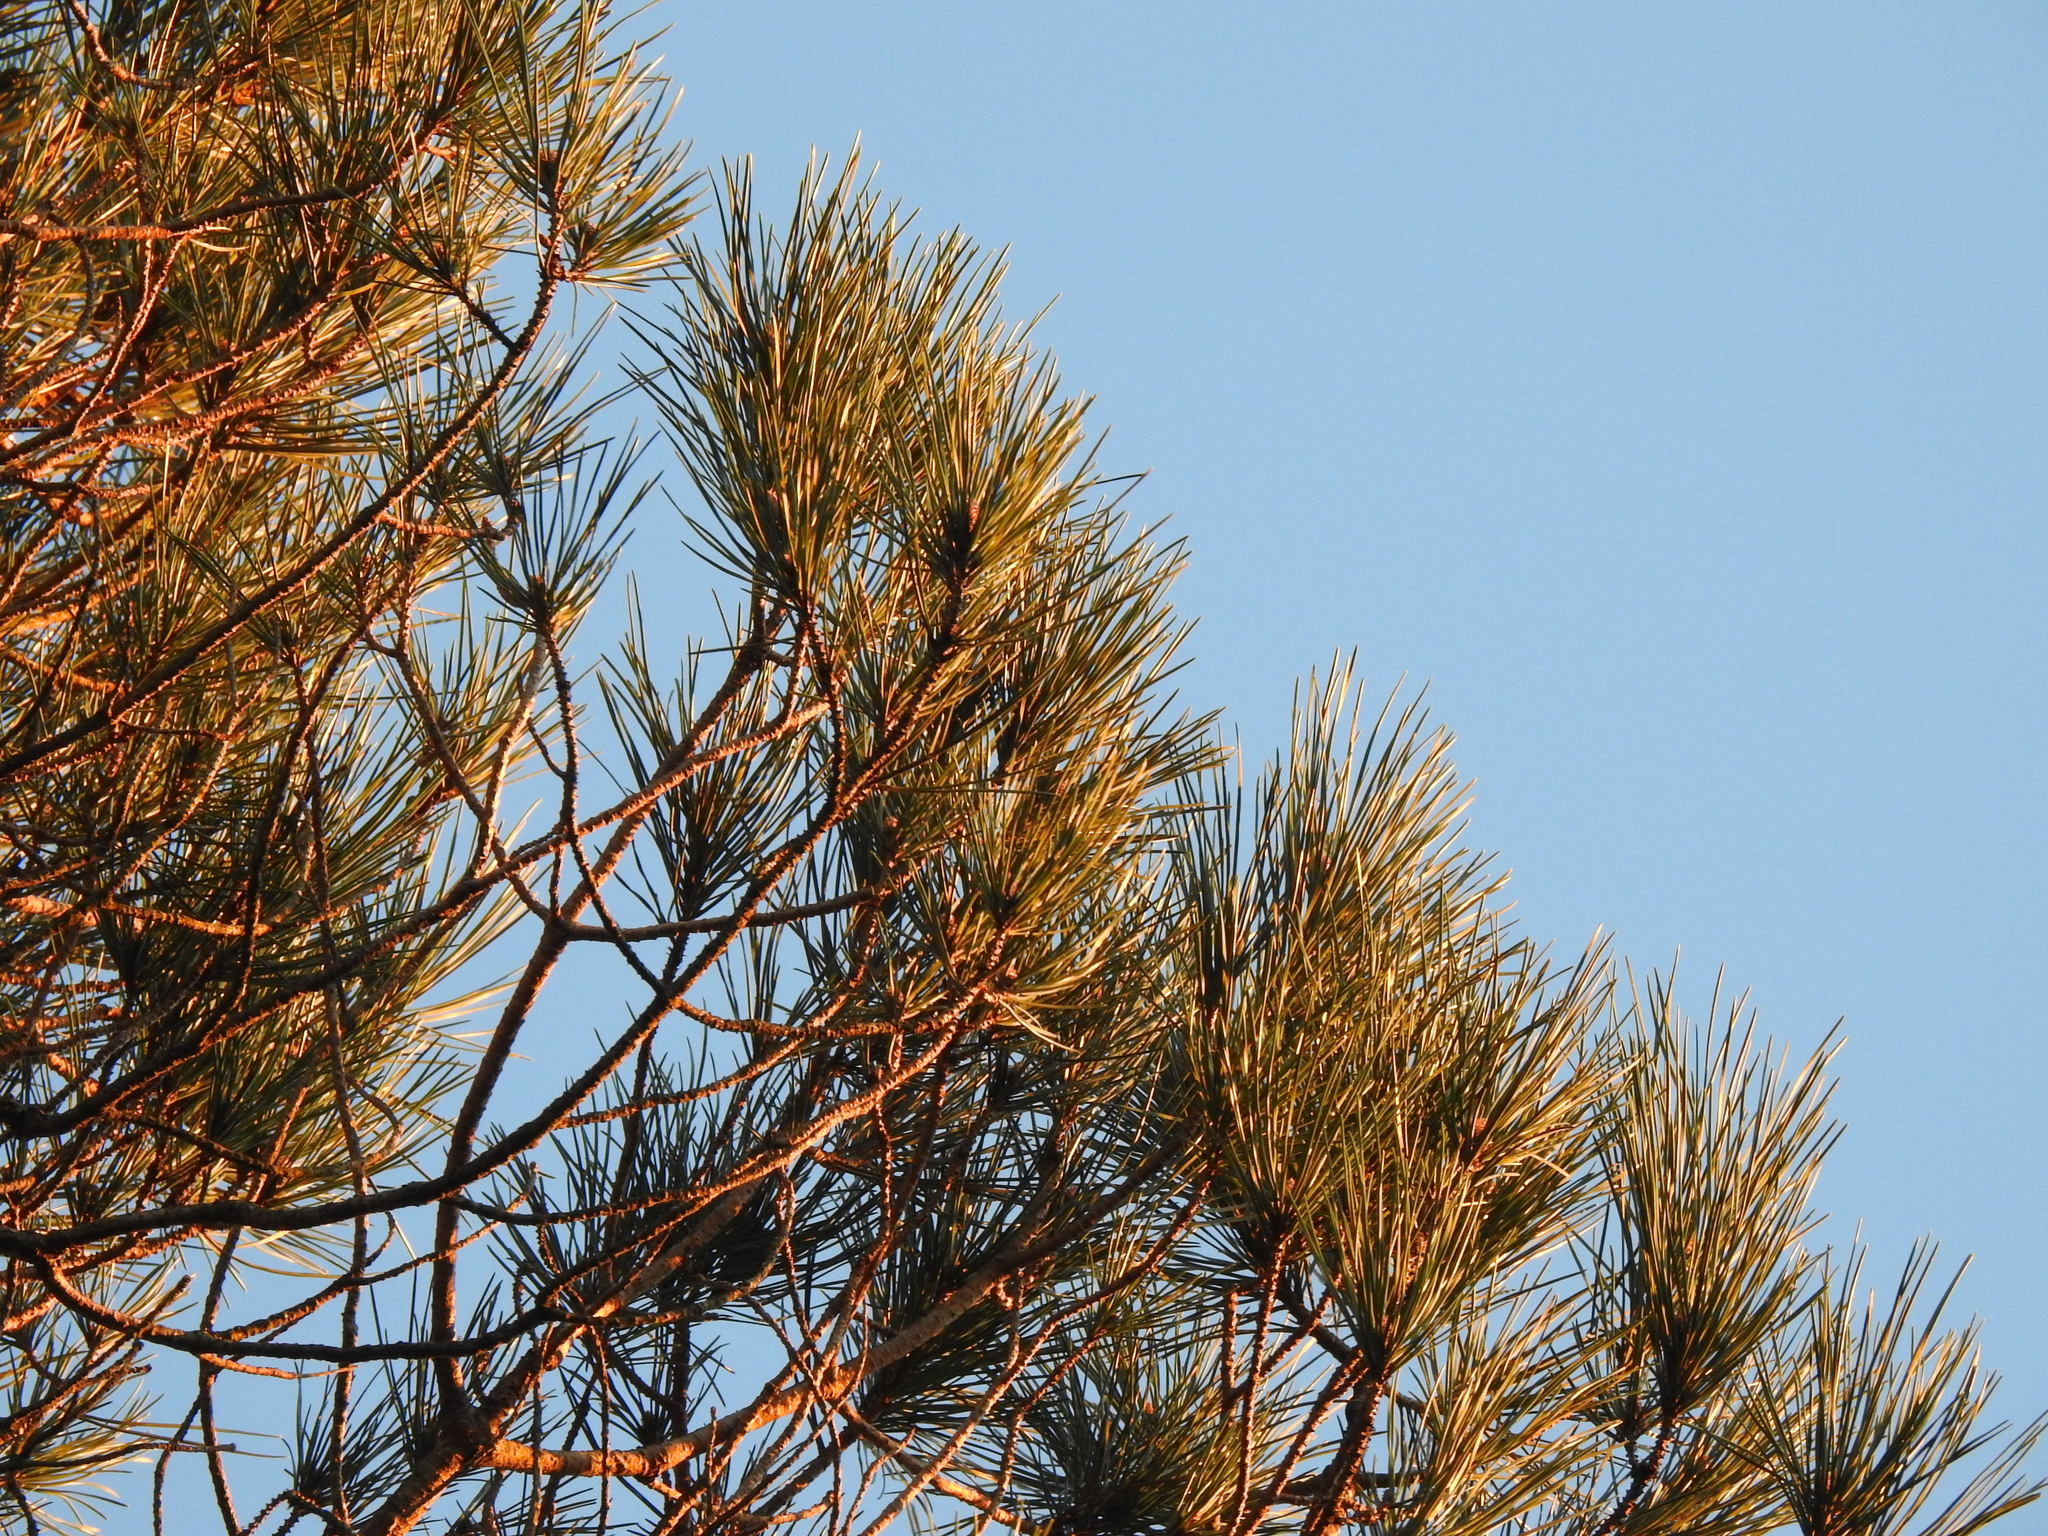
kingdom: Plantae
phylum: Tracheophyta
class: Pinopsida
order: Pinales
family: Pinaceae
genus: Pinus
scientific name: Pinus pinea
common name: Italian stone pine
